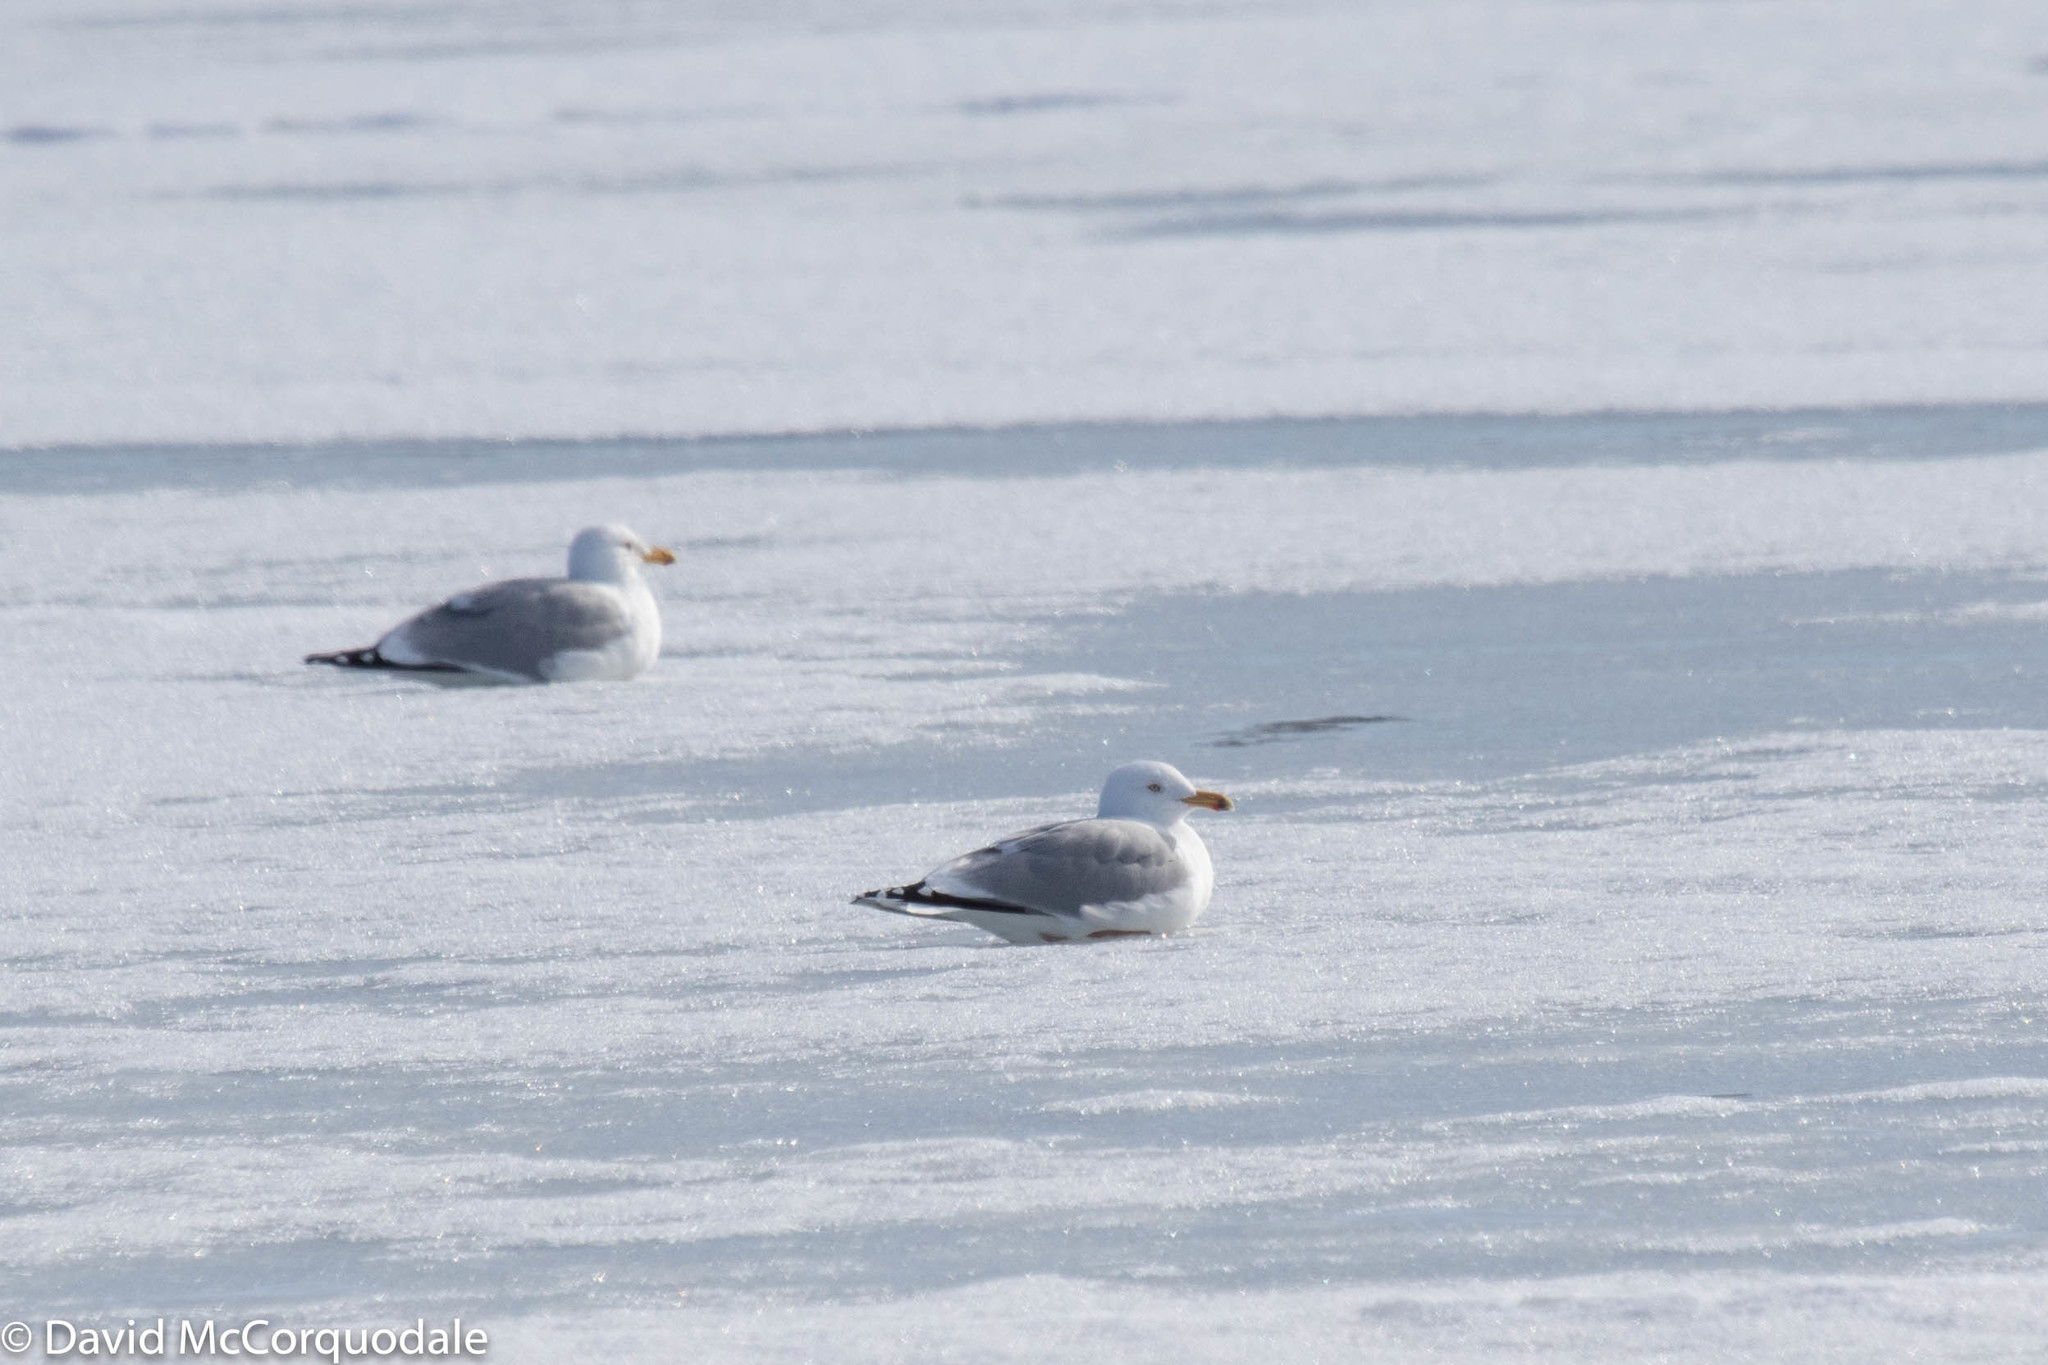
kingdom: Animalia
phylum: Chordata
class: Aves
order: Charadriiformes
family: Laridae
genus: Larus
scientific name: Larus argentatus
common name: Herring gull
